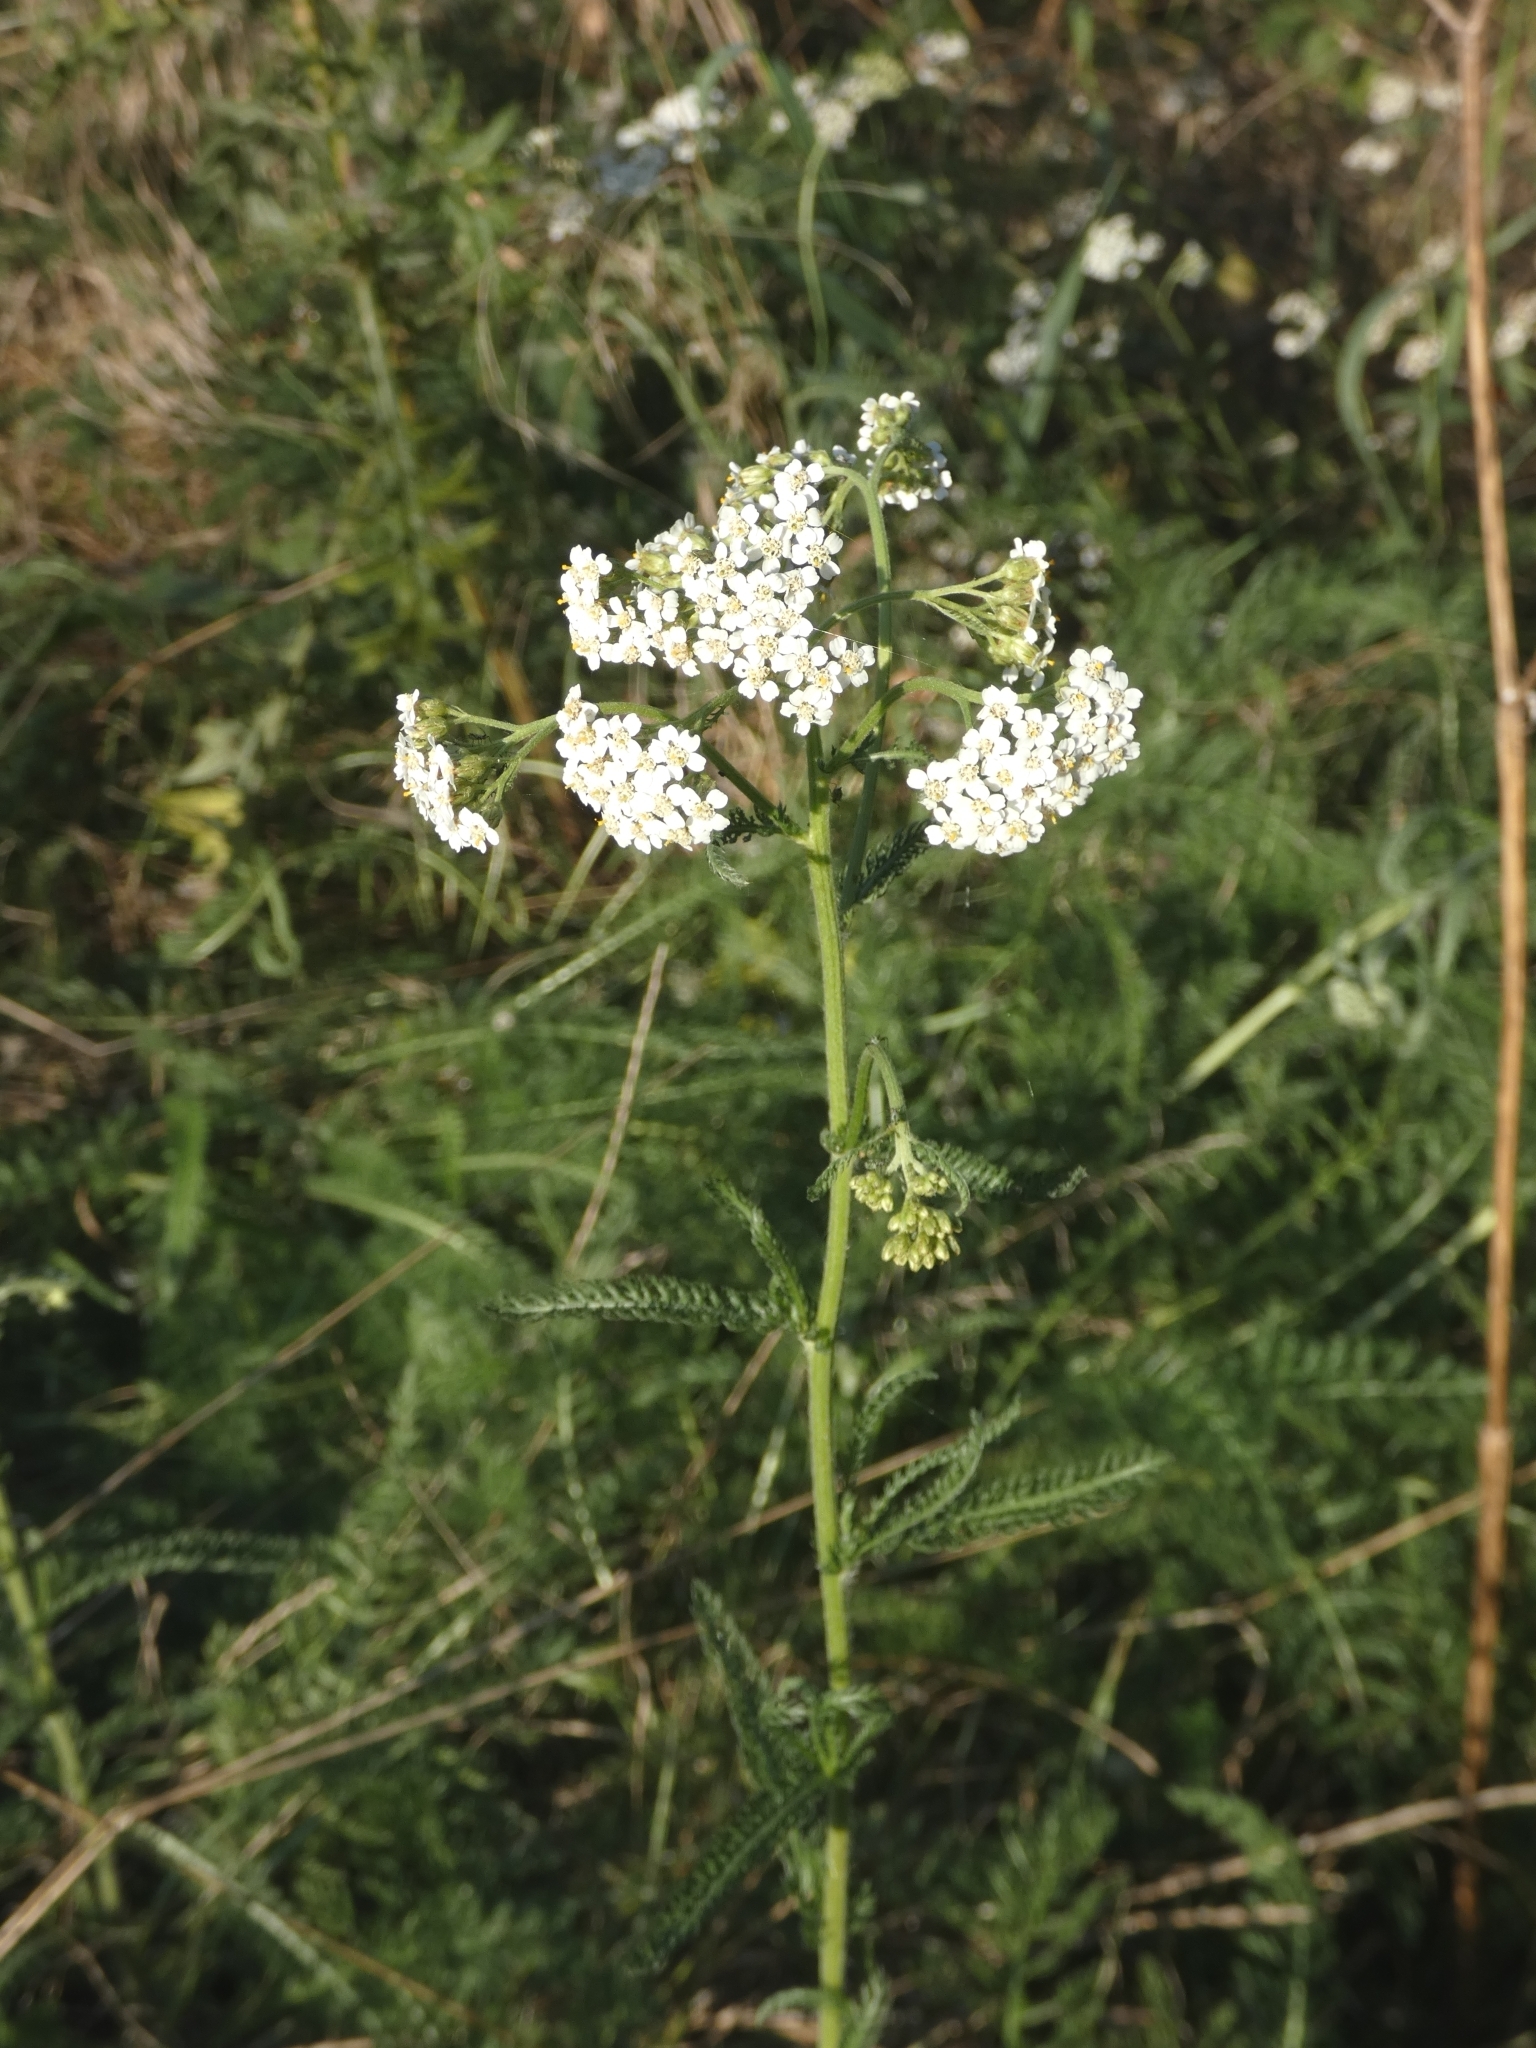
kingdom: Plantae
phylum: Tracheophyta
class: Magnoliopsida
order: Asterales
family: Asteraceae
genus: Achillea
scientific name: Achillea millefolium
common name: Yarrow
